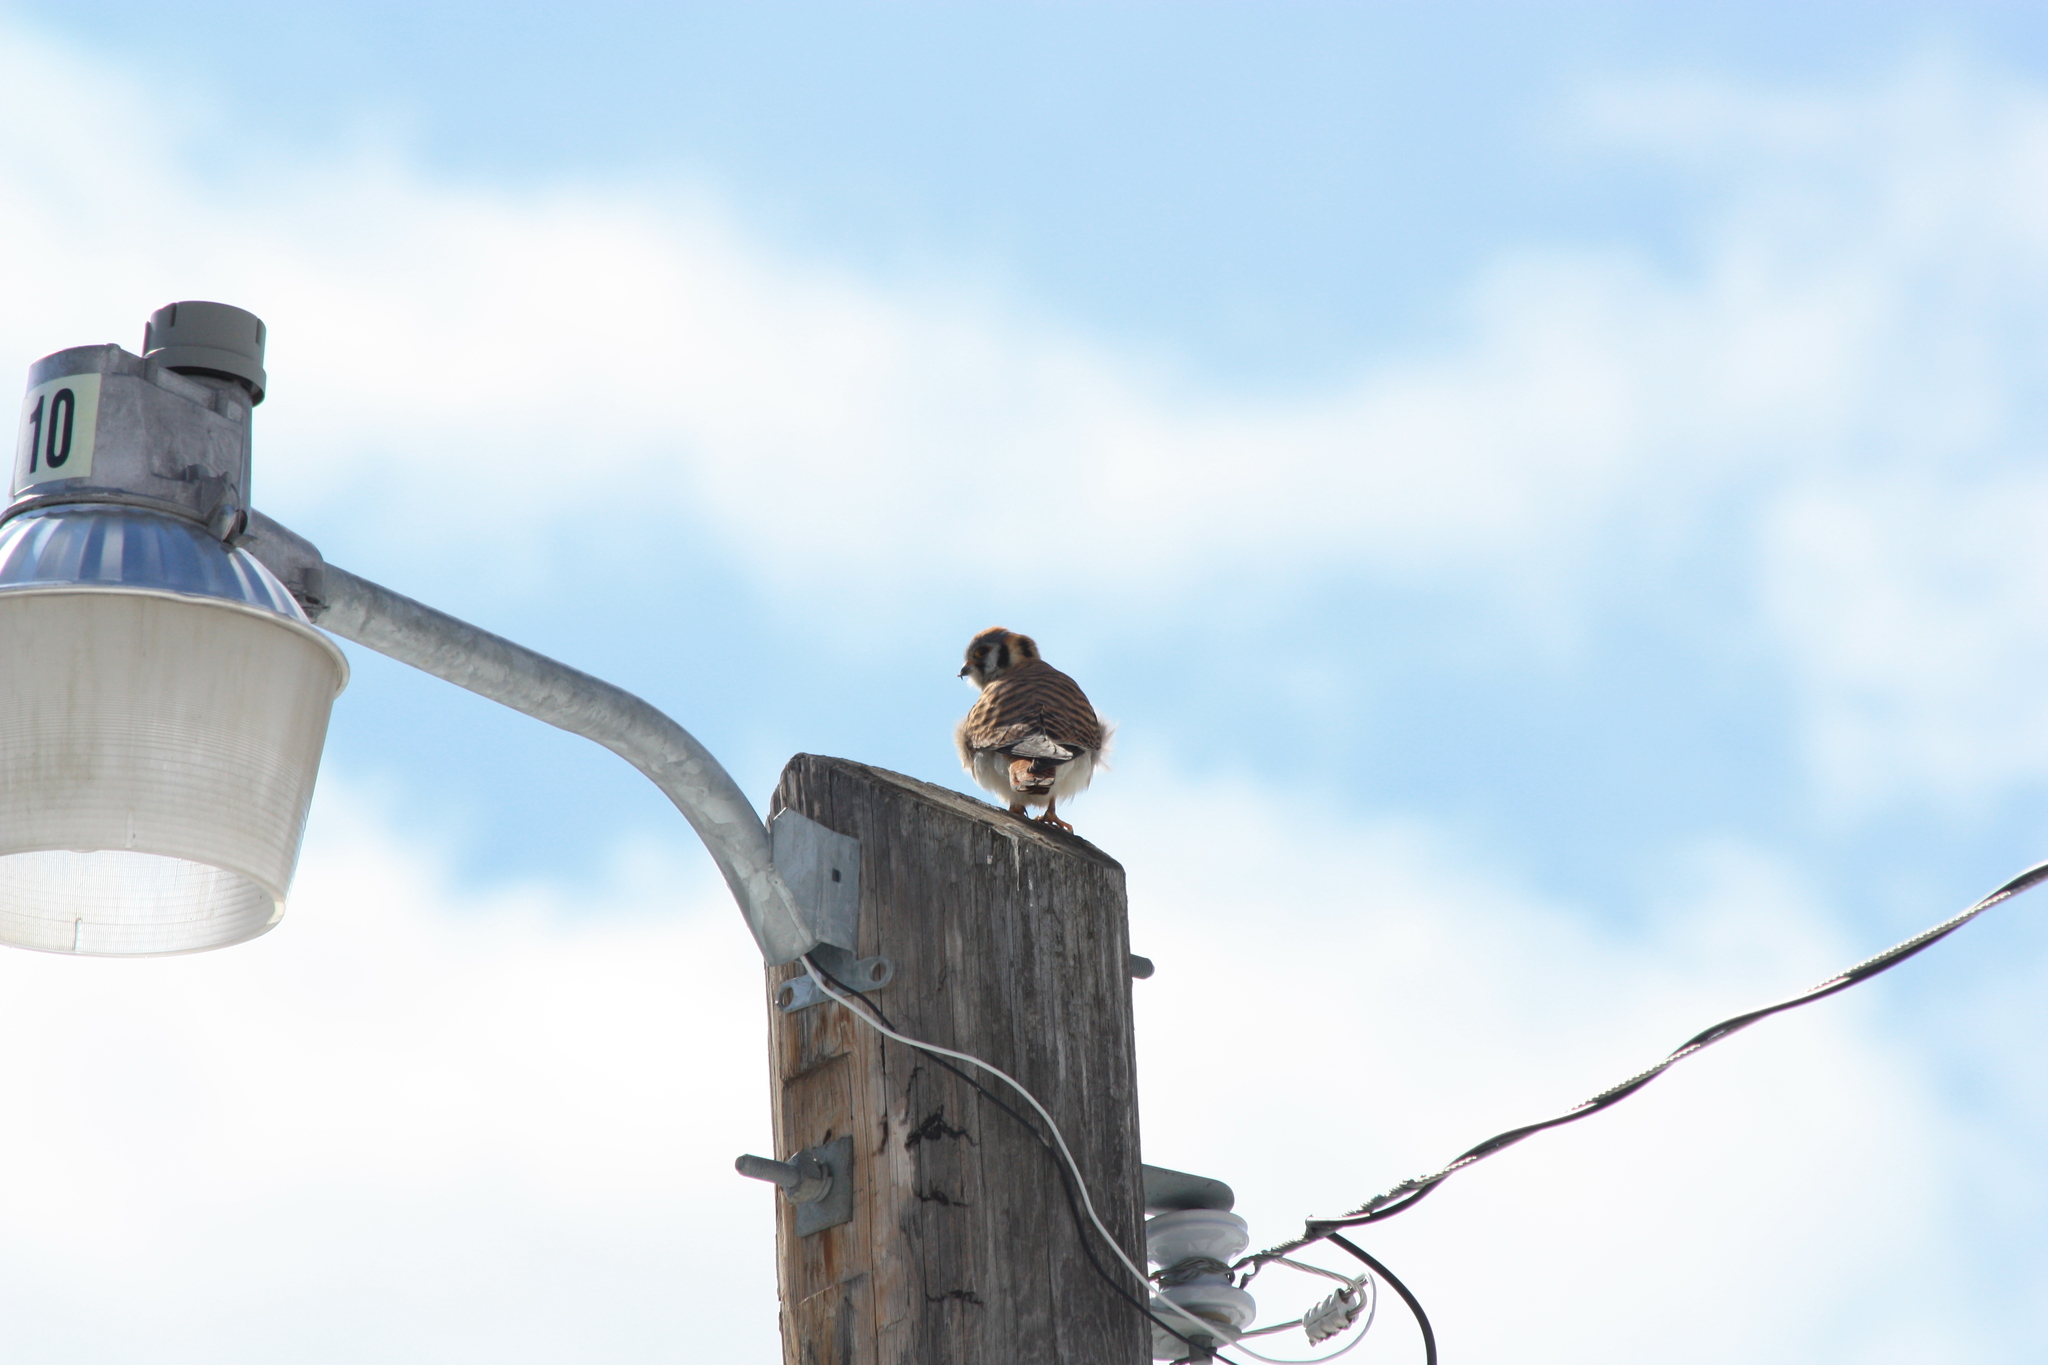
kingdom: Animalia
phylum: Chordata
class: Aves
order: Falconiformes
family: Falconidae
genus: Falco
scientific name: Falco sparverius
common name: American kestrel
